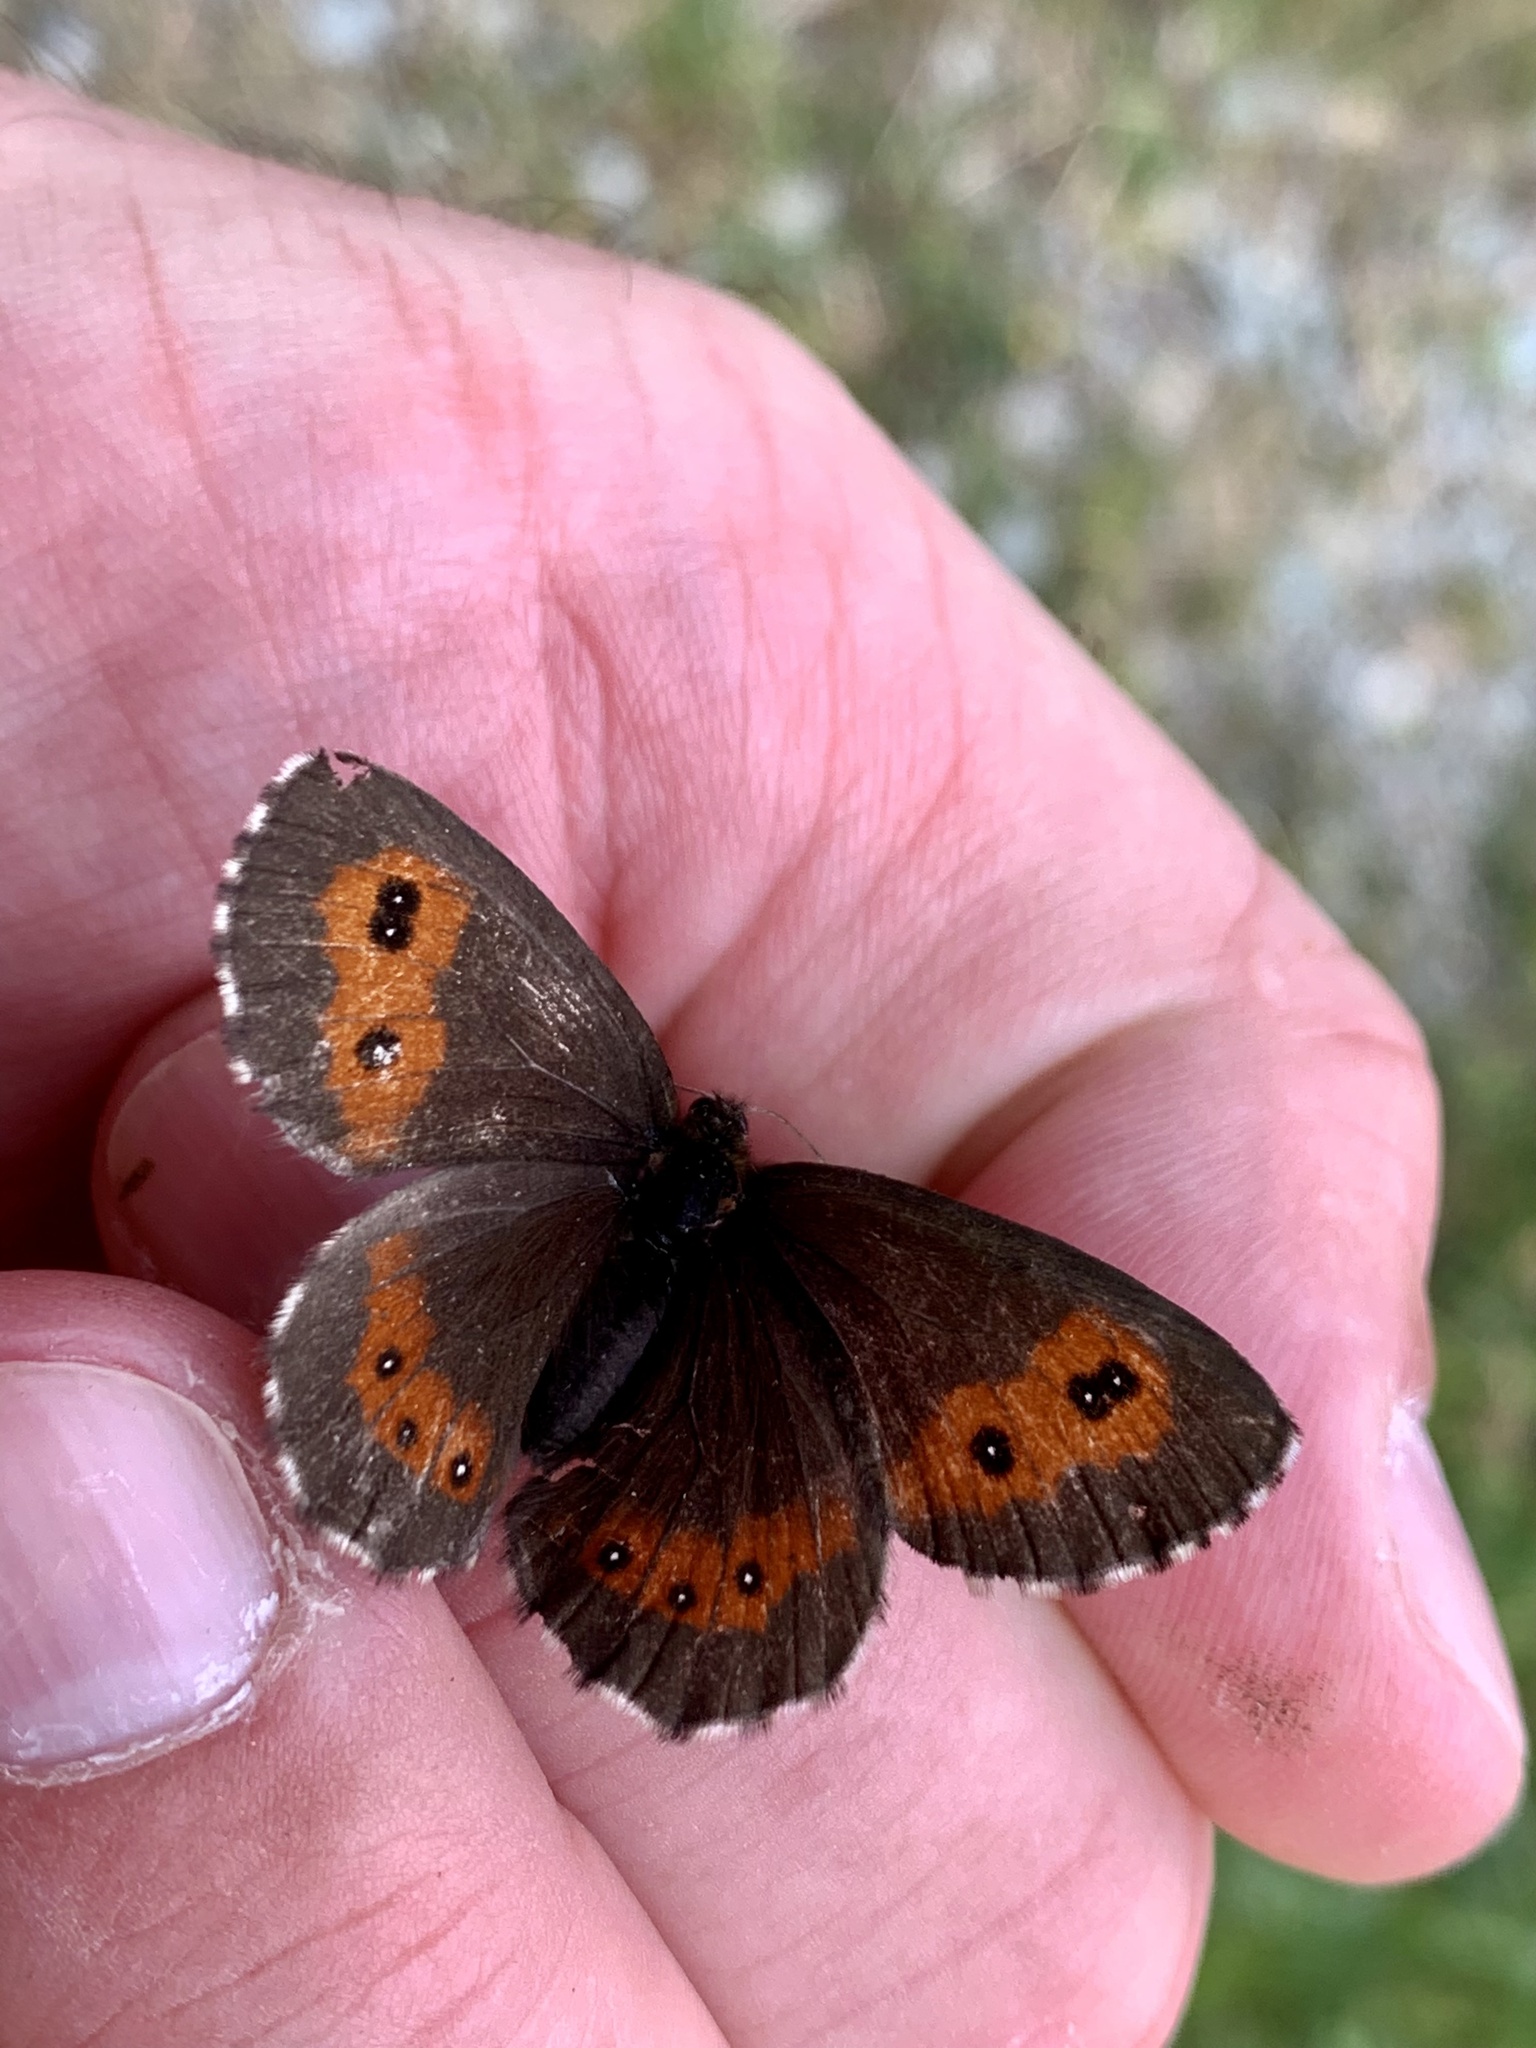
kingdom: Animalia
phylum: Arthropoda
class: Insecta
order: Lepidoptera
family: Nymphalidae
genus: Erebia
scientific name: Erebia euryale
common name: Large ringlet
